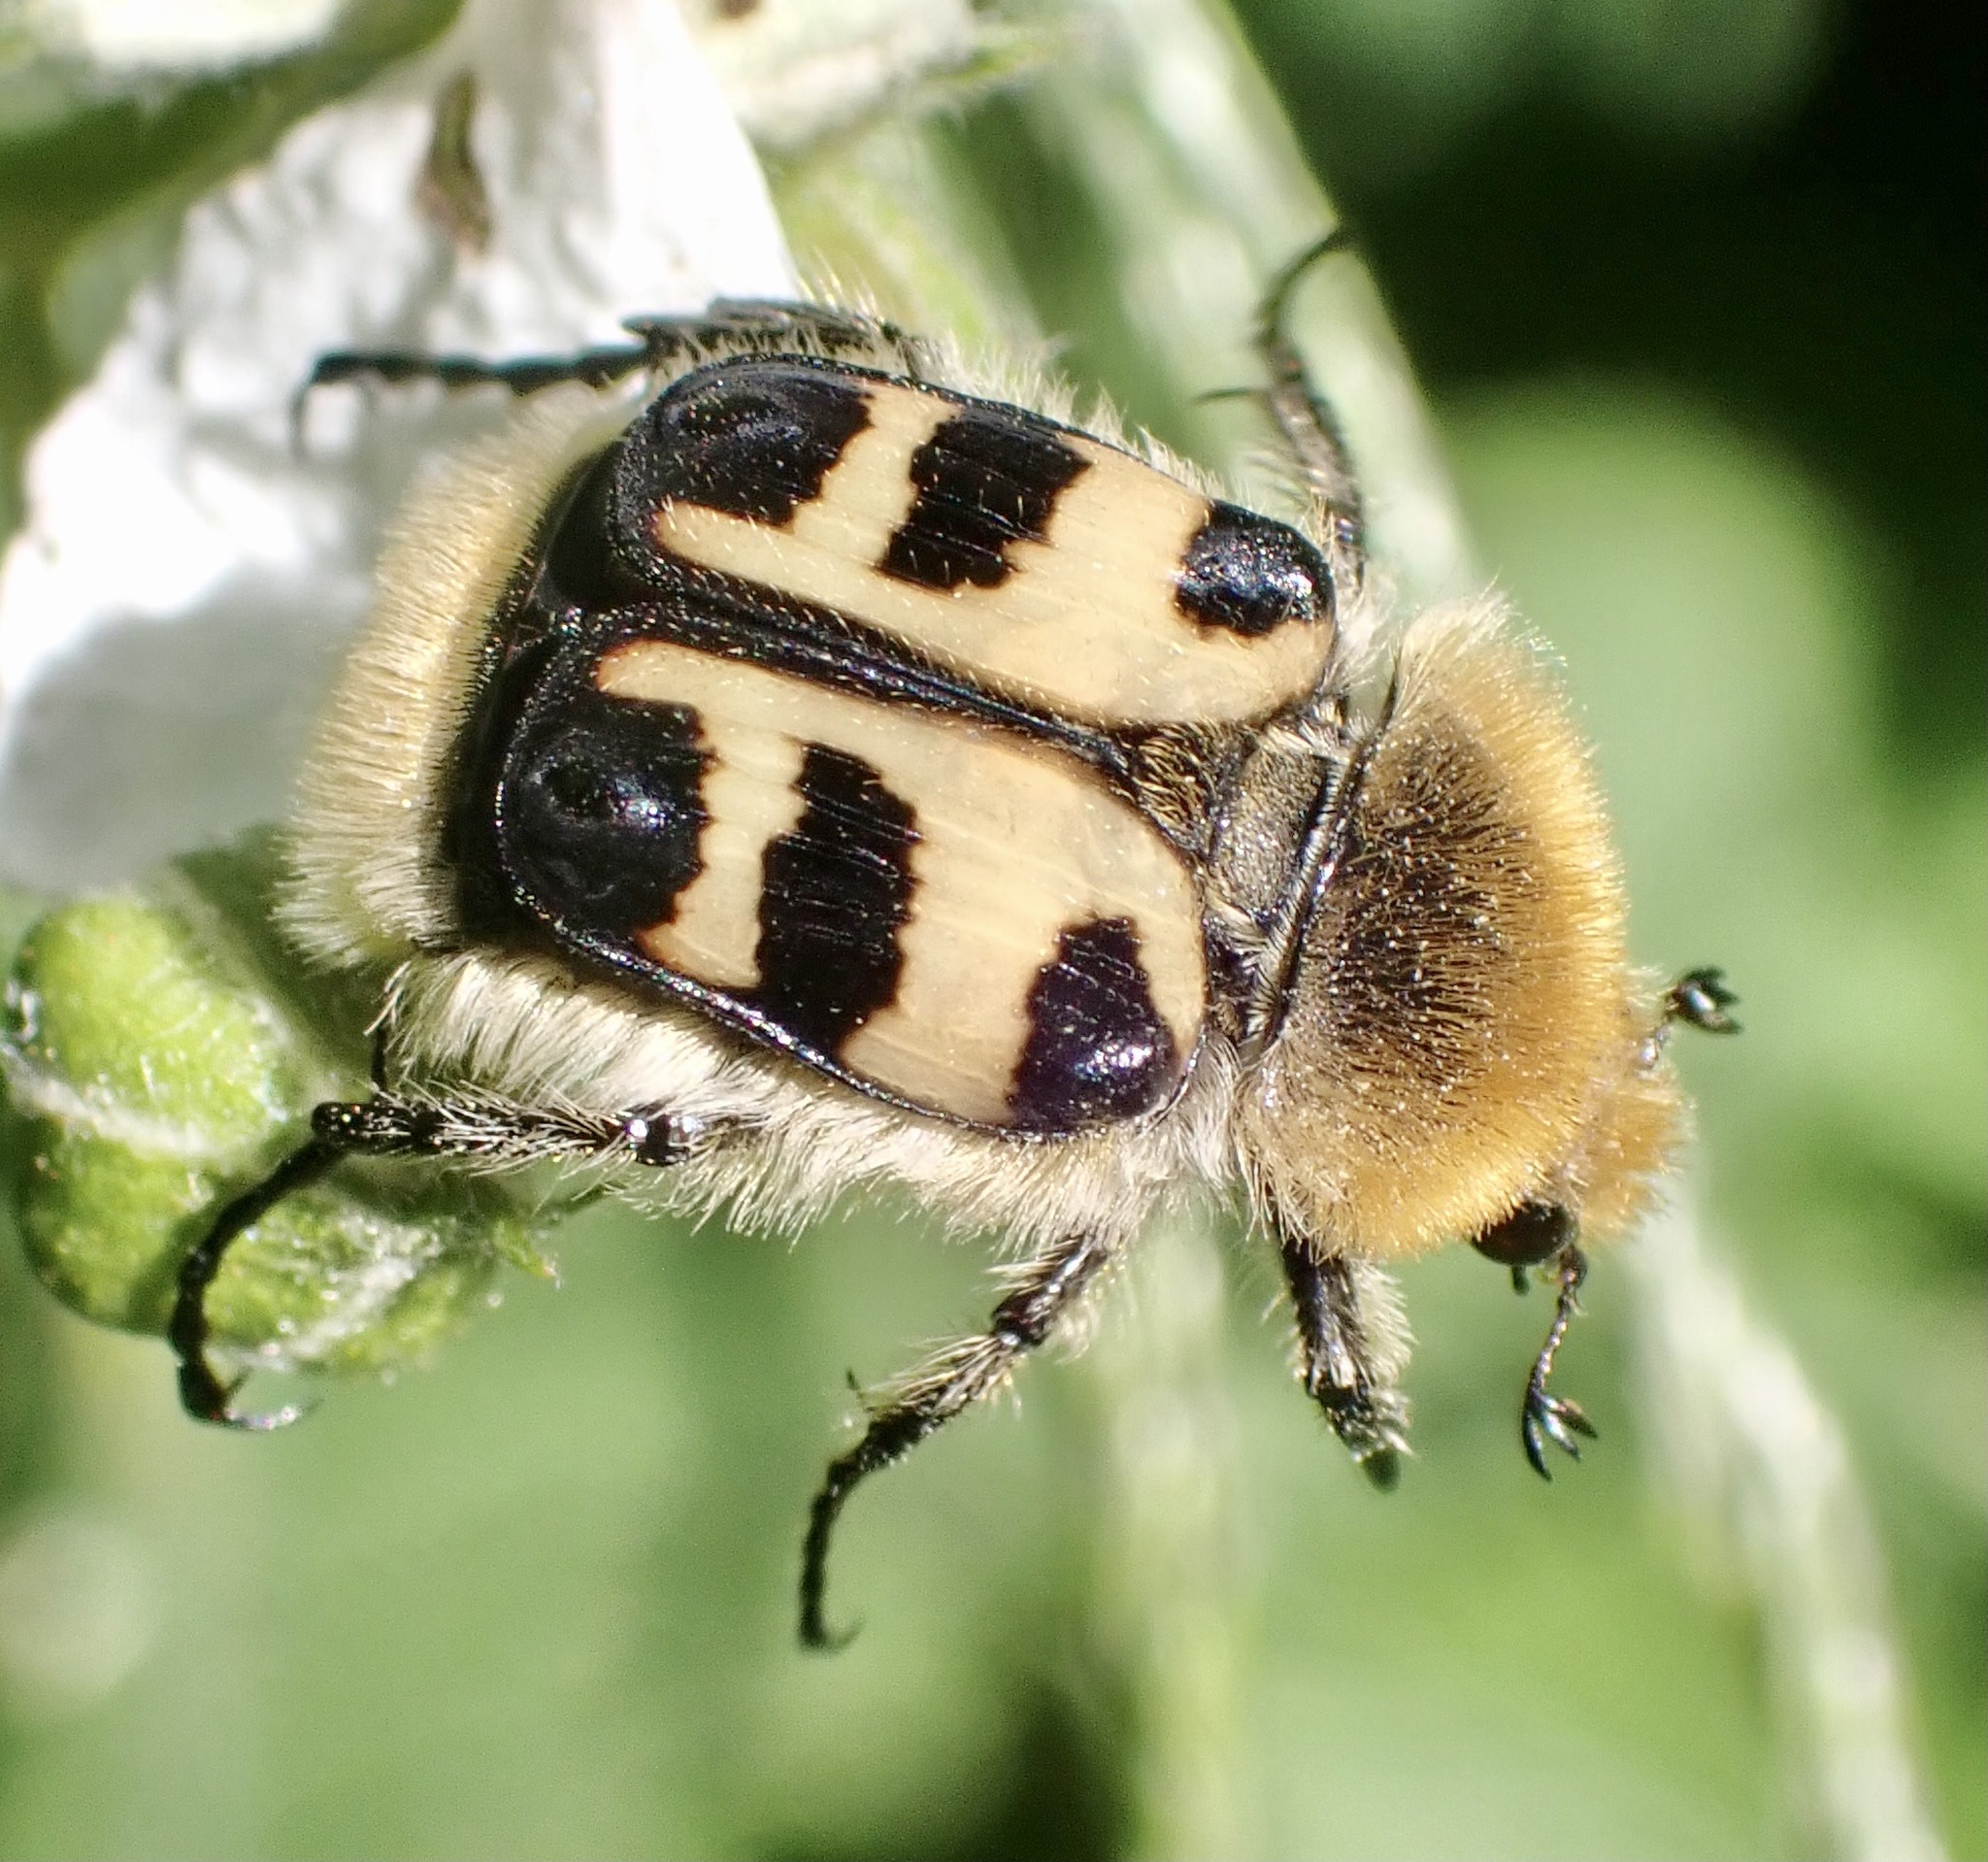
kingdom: Animalia
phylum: Arthropoda
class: Insecta
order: Coleoptera
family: Scarabaeidae
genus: Trichius
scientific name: Trichius gallicus
